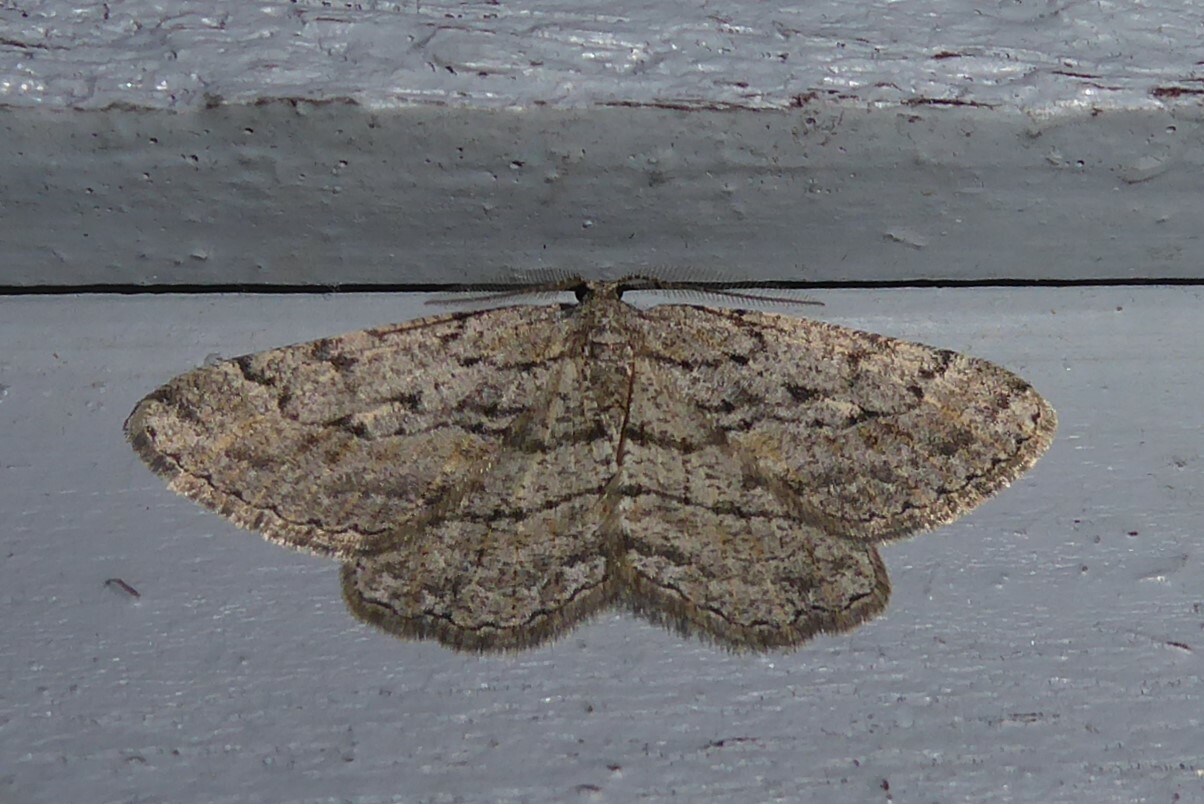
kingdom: Animalia
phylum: Arthropoda
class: Insecta
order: Lepidoptera
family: Geometridae
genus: Zermizinga
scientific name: Zermizinga sinuata
